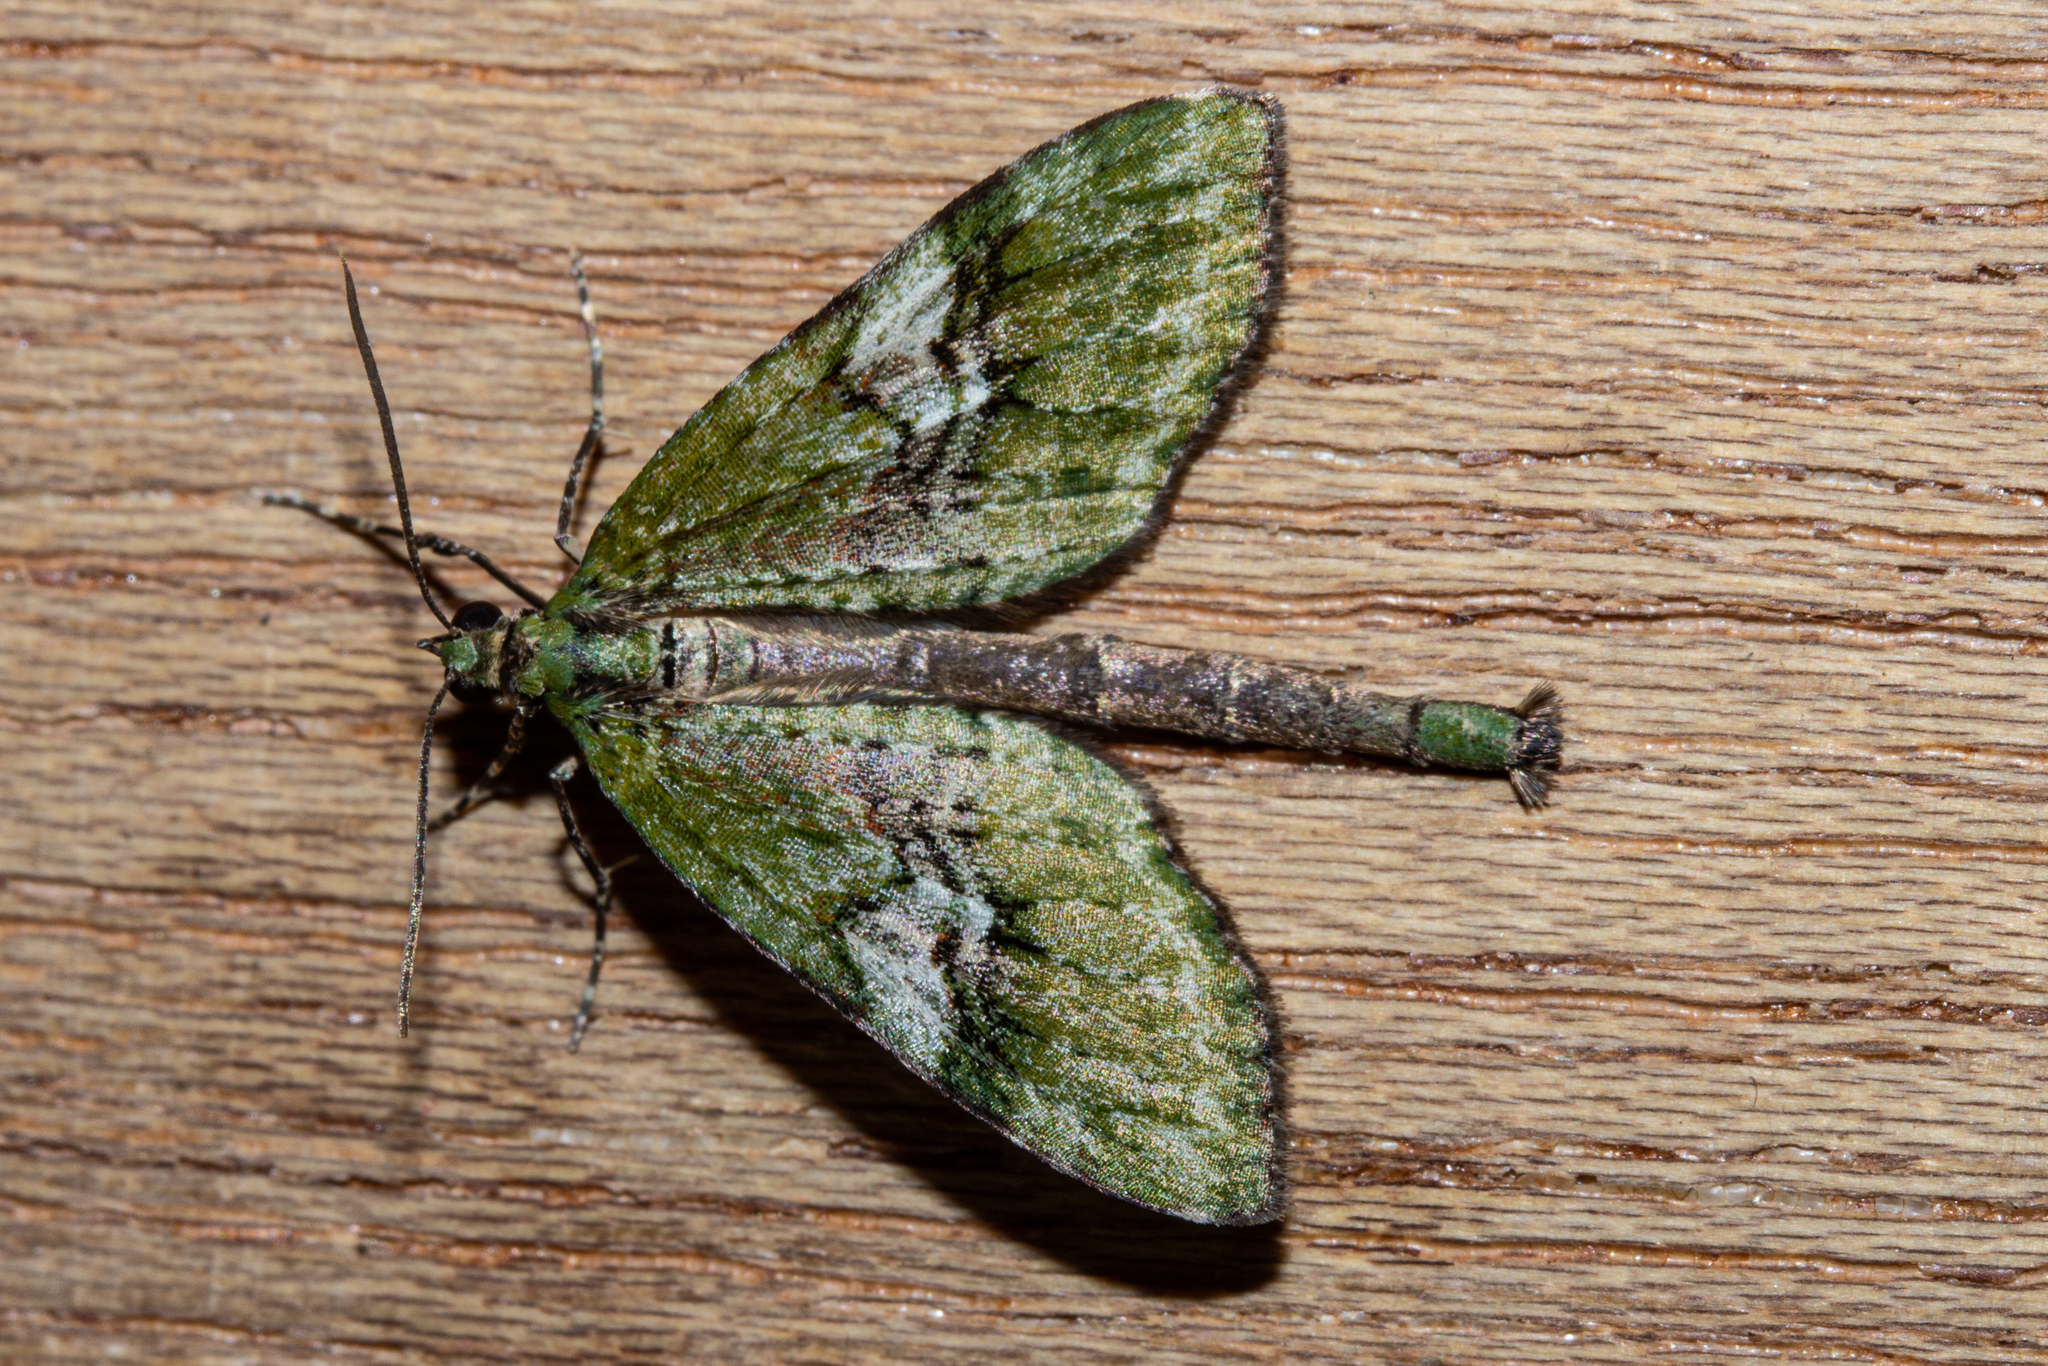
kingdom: Animalia
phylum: Arthropoda
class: Insecta
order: Lepidoptera
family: Geometridae
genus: Tatosoma
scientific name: Tatosoma topea
